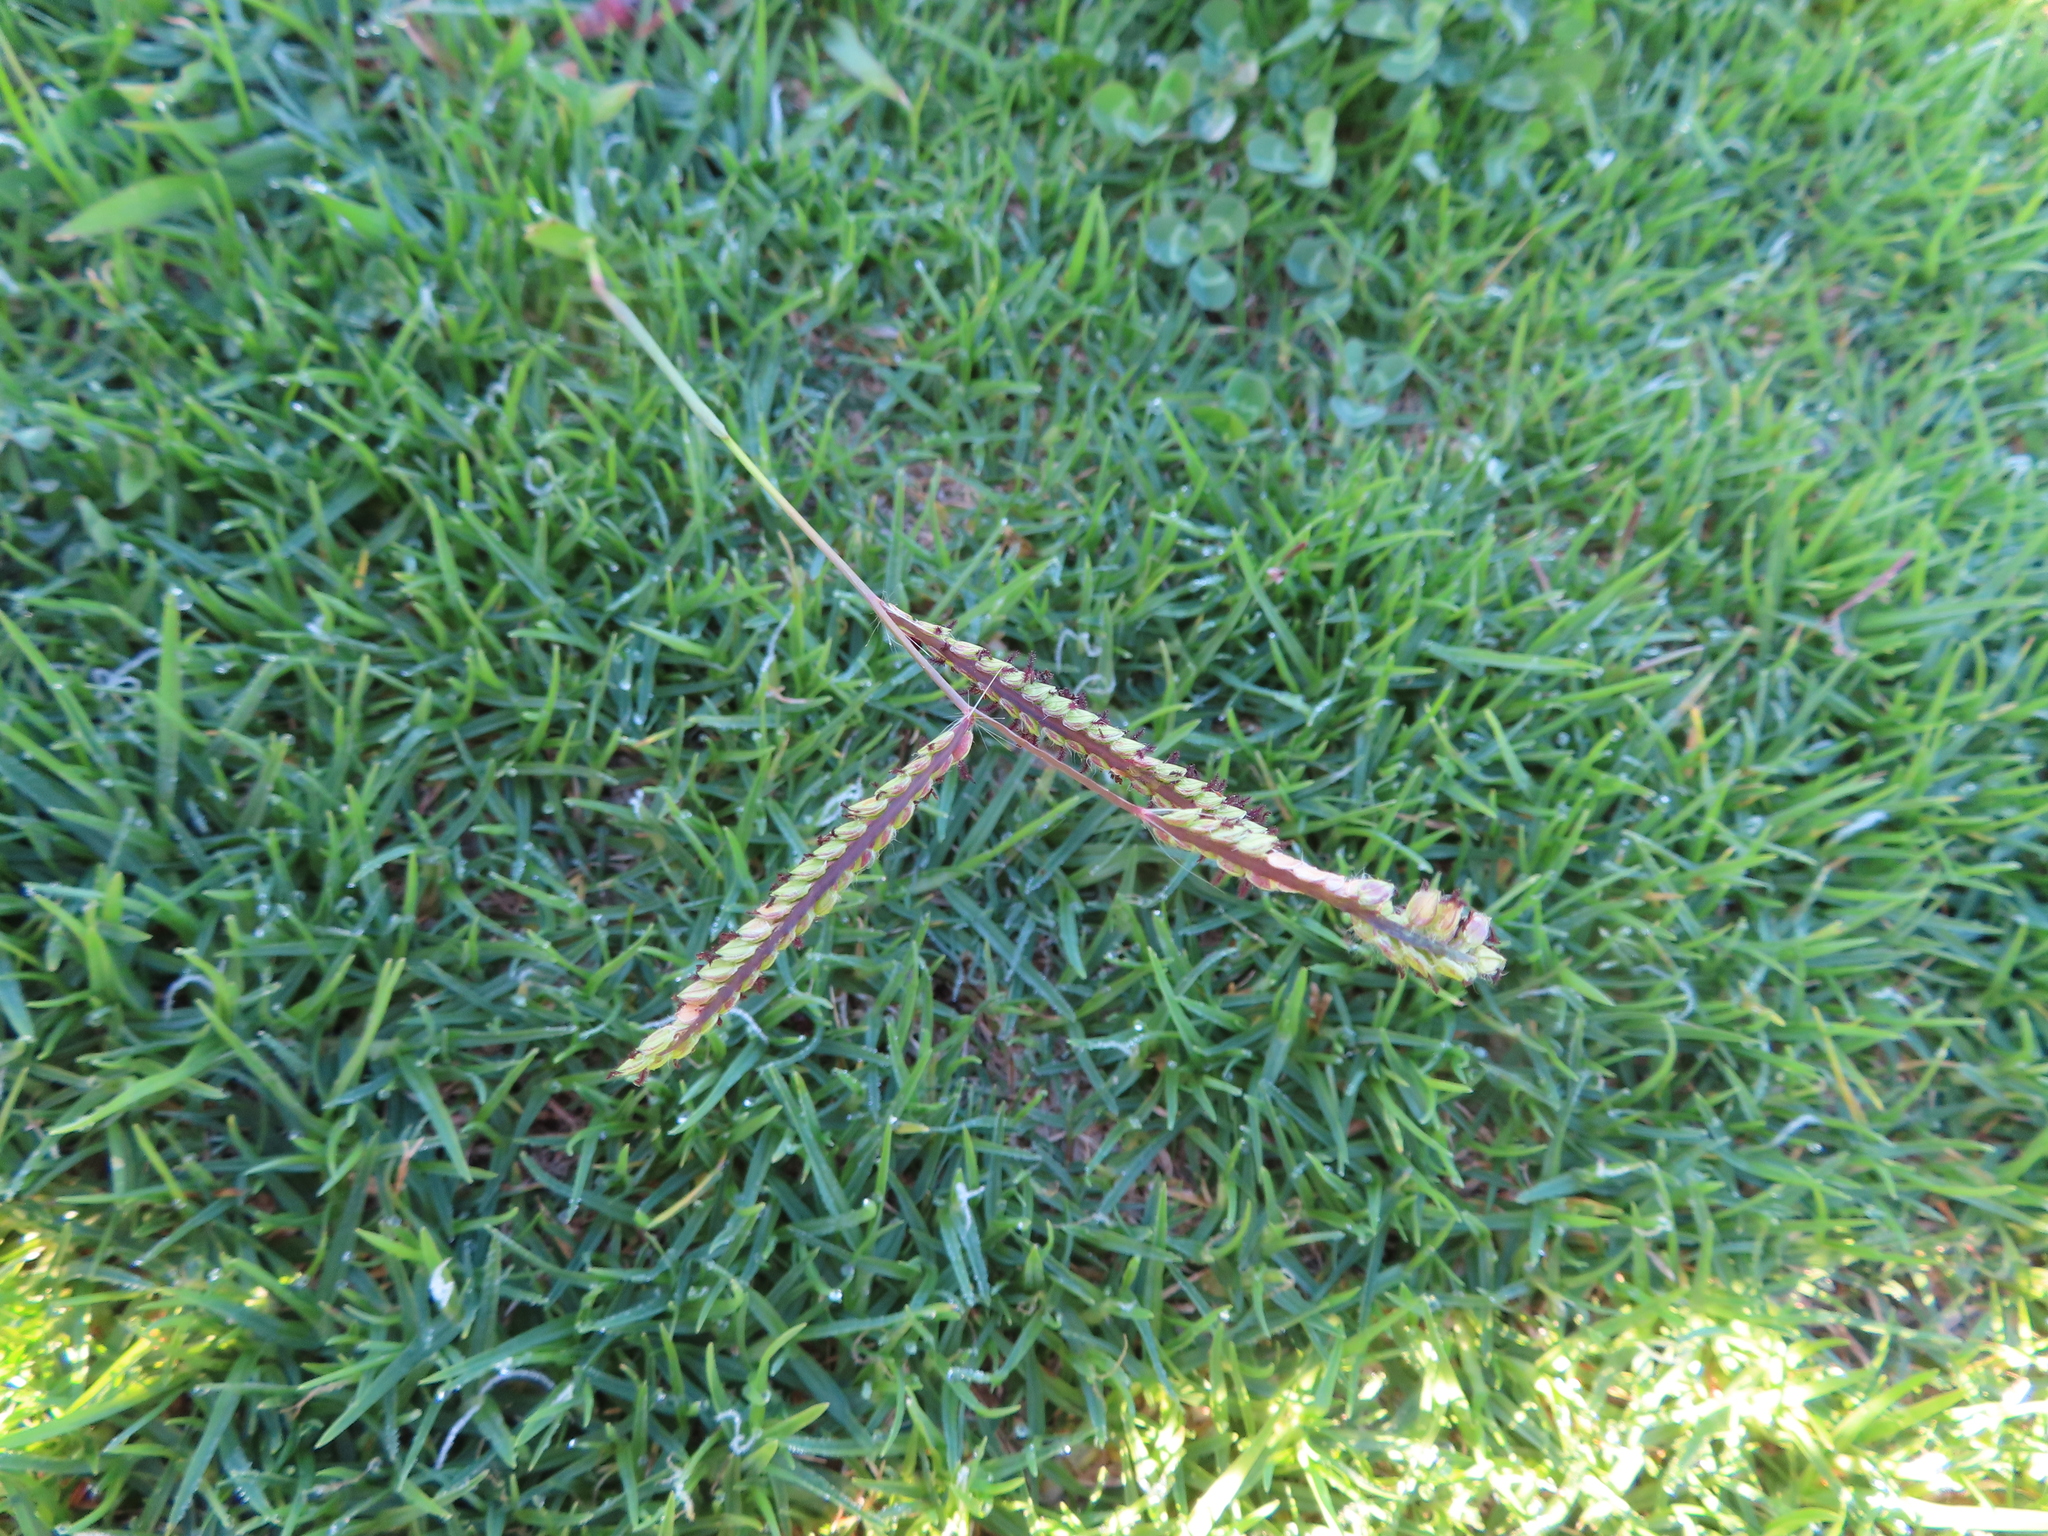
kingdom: Plantae
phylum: Tracheophyta
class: Liliopsida
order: Poales
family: Poaceae
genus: Paspalum
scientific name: Paspalum dilatatum
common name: Dallisgrass
